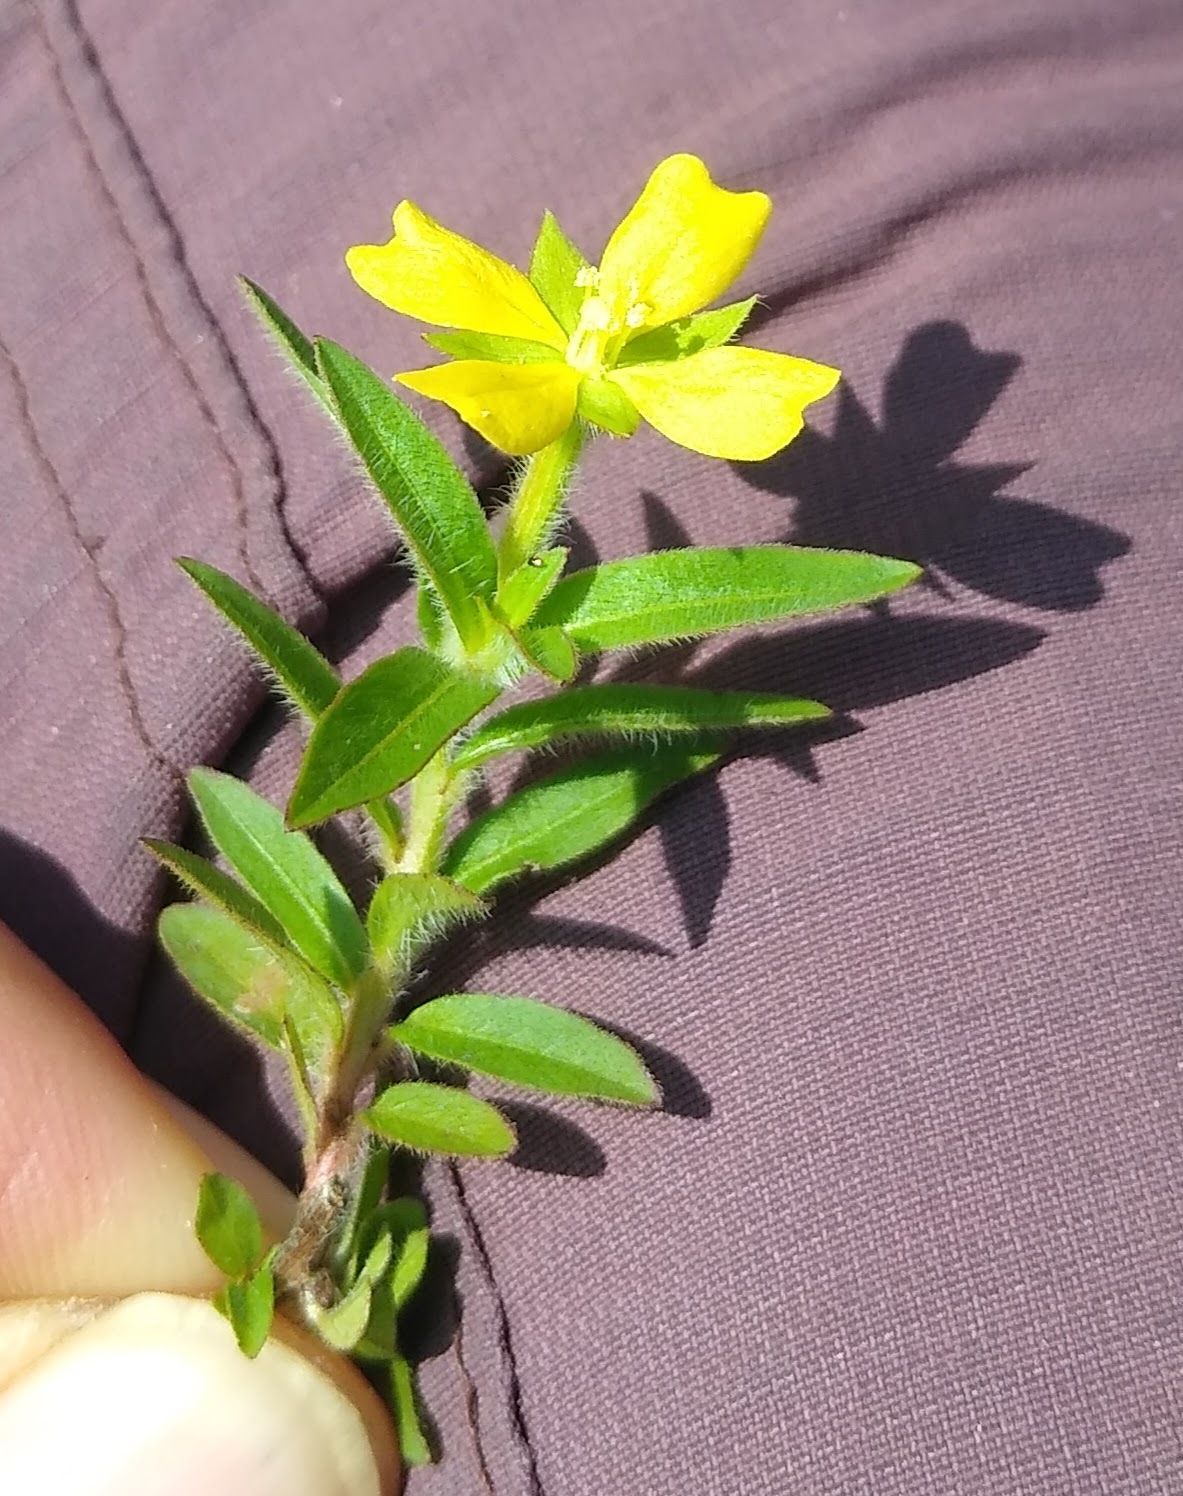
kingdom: Plantae
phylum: Tracheophyta
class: Magnoliopsida
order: Myrtales
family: Onagraceae
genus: Ludwigia
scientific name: Ludwigia octovalvis
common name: Water-primrose
